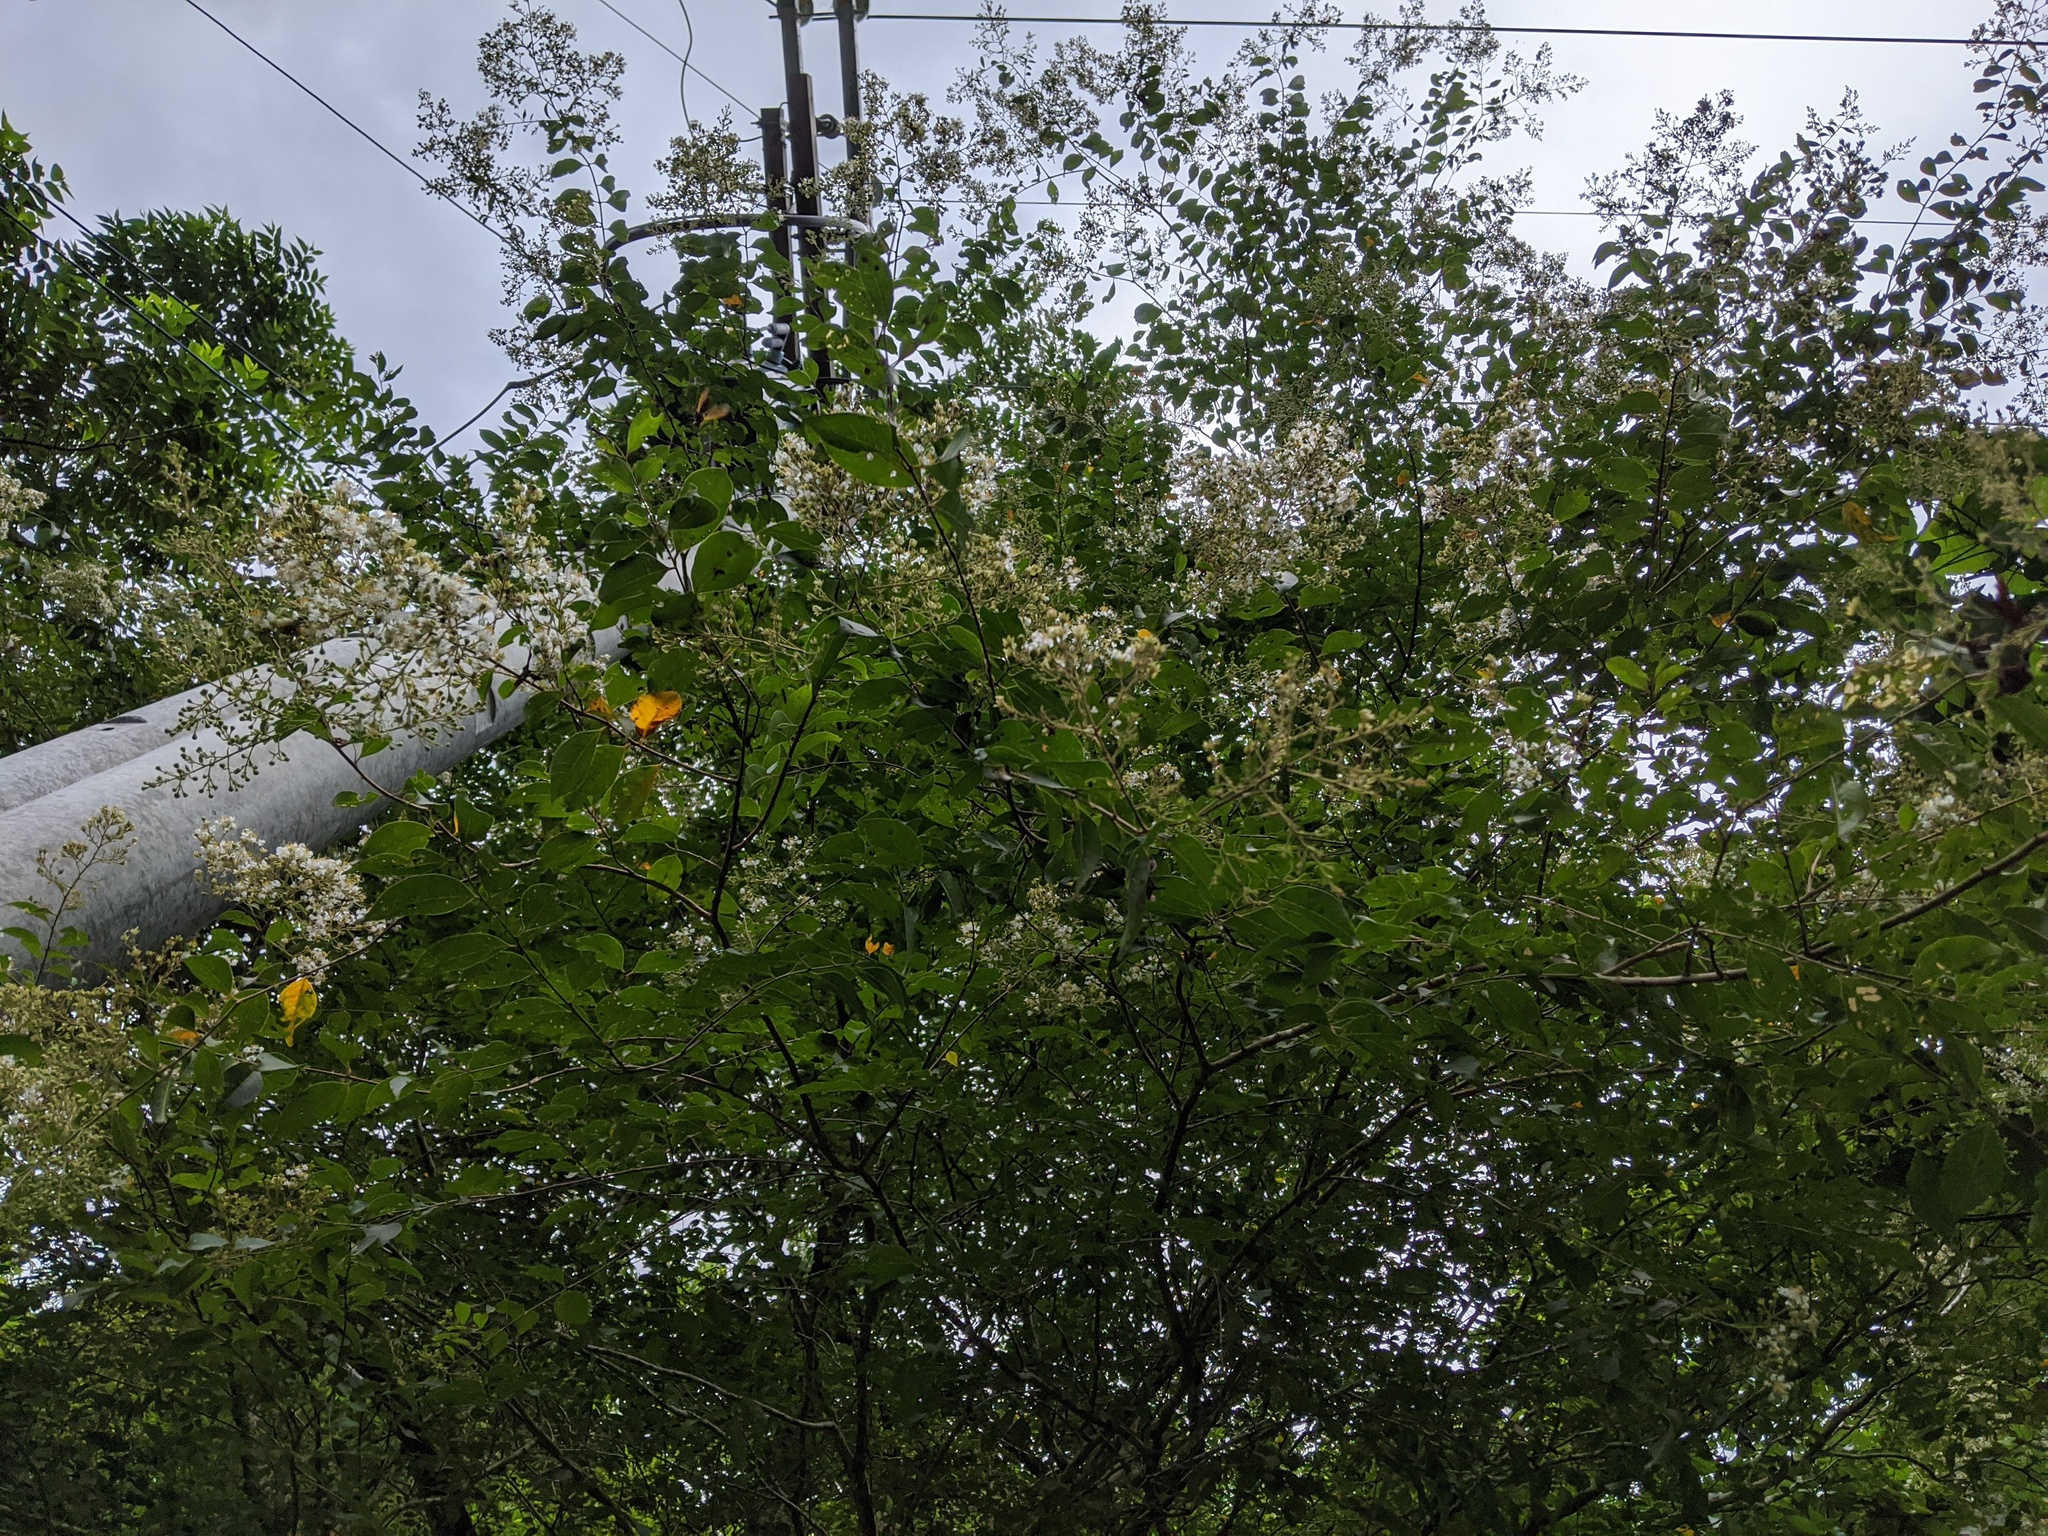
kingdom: Plantae
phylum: Tracheophyta
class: Magnoliopsida
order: Myrtales
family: Lythraceae
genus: Lagerstroemia
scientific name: Lagerstroemia subcostata
